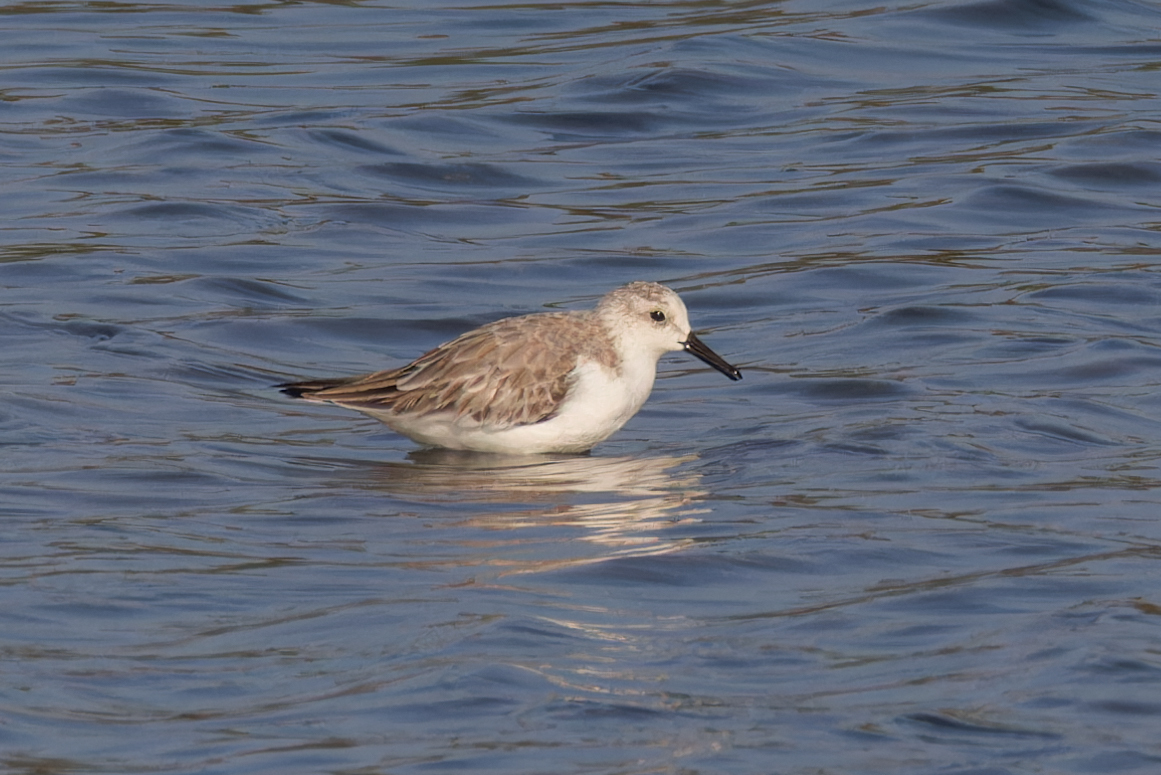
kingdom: Animalia
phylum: Chordata
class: Aves
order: Charadriiformes
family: Scolopacidae
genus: Calidris
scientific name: Calidris alba
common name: Sanderling
